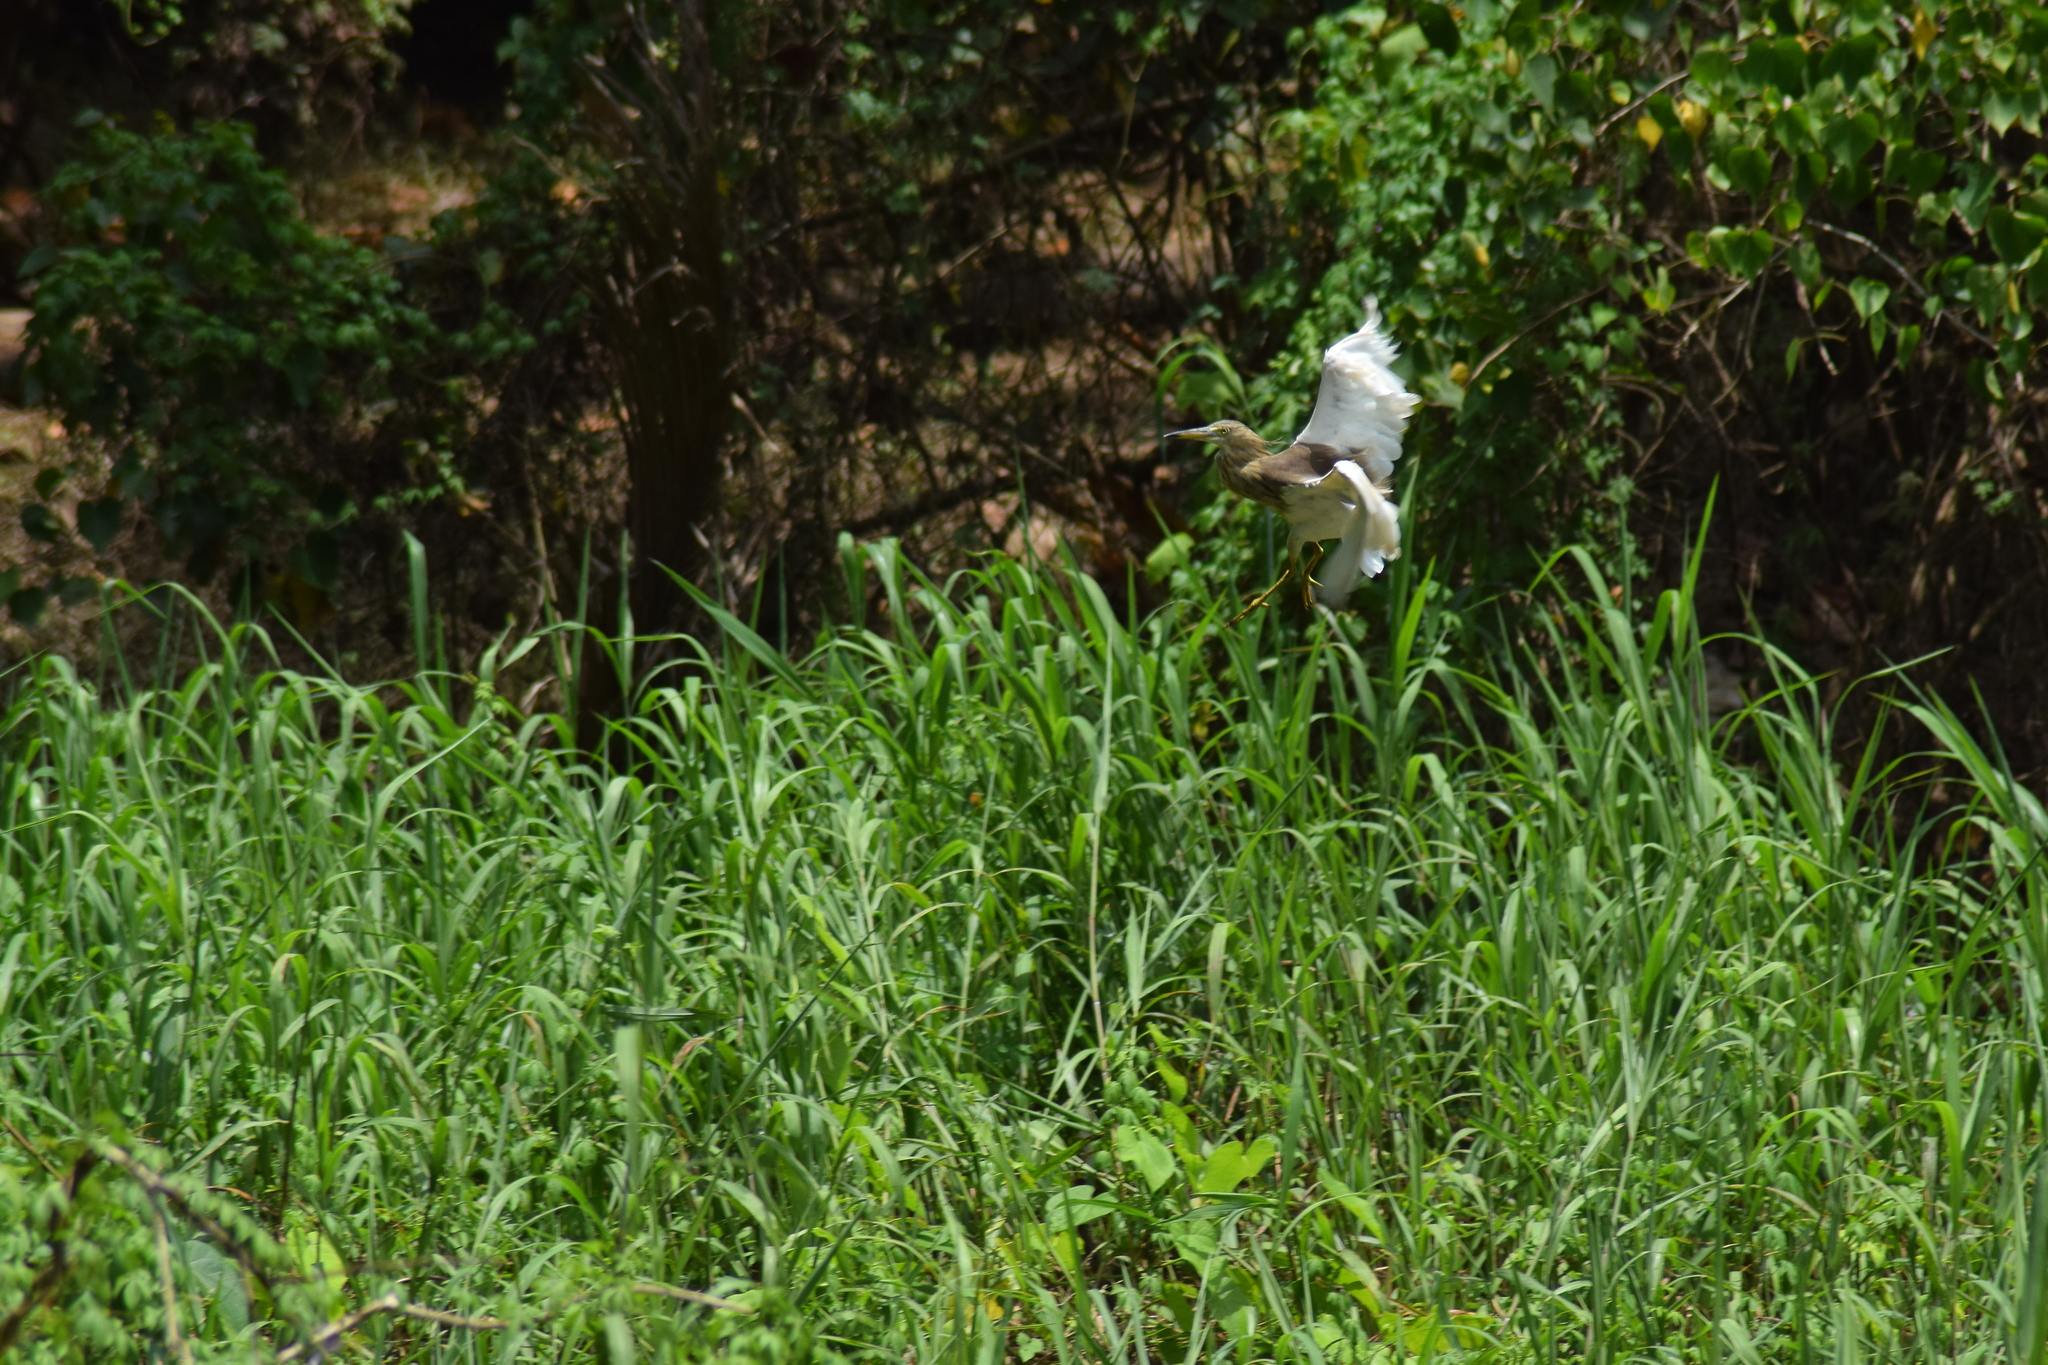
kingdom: Animalia
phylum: Chordata
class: Aves
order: Pelecaniformes
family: Ardeidae
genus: Ardeola
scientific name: Ardeola grayii
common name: Indian pond heron
